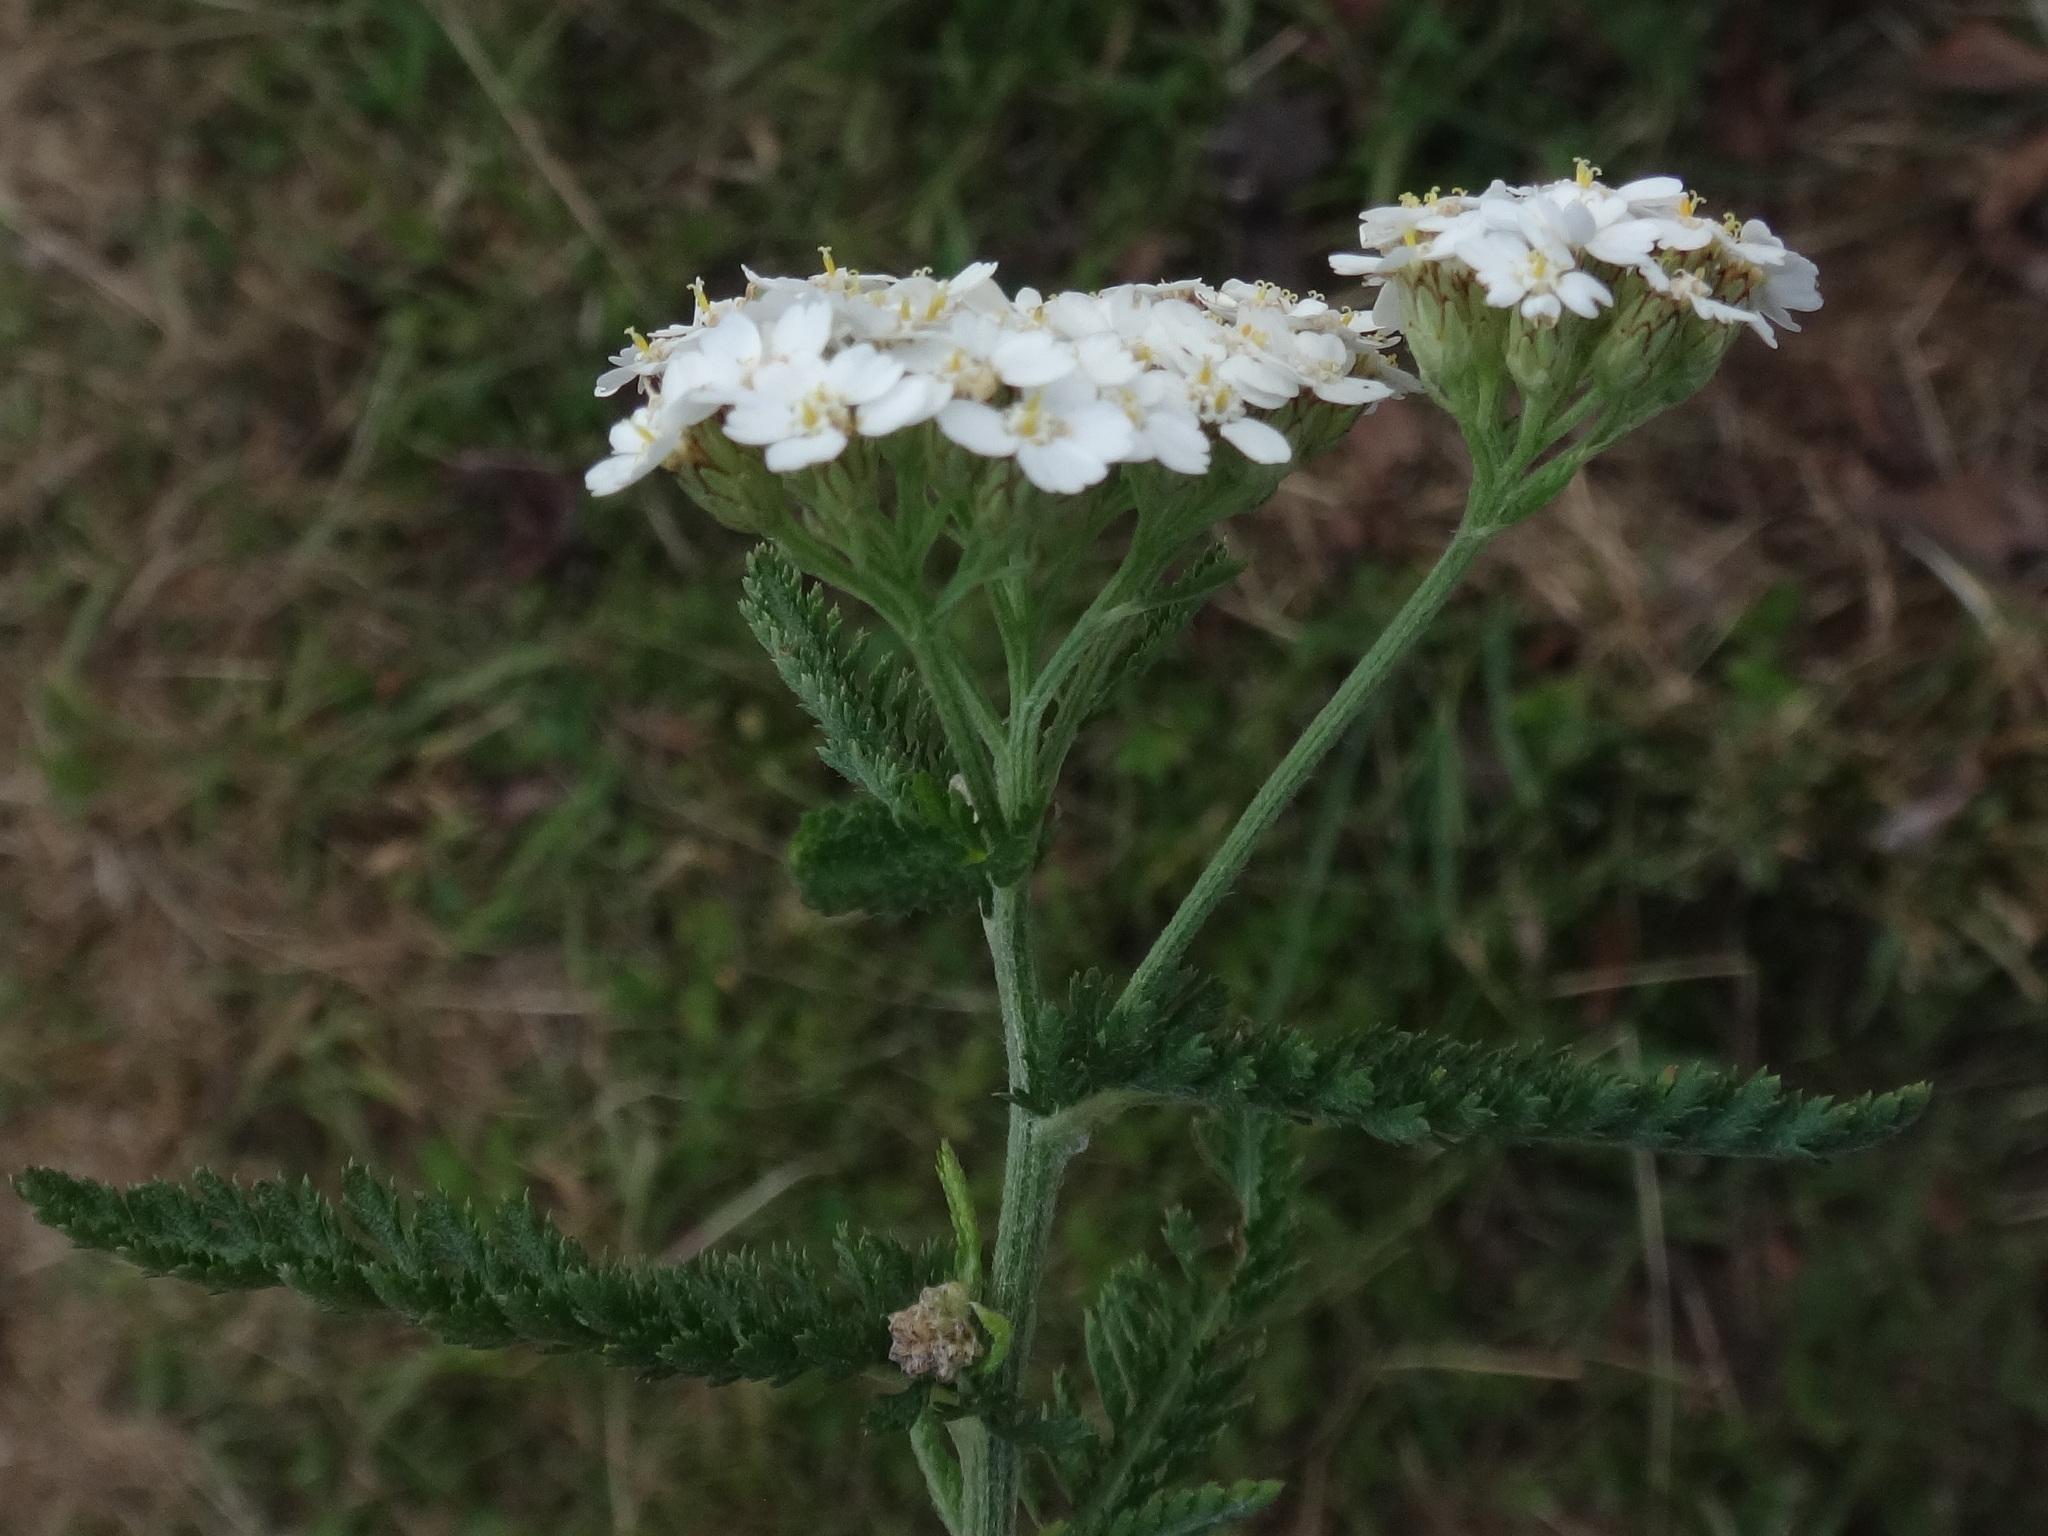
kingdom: Plantae
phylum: Tracheophyta
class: Magnoliopsida
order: Asterales
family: Asteraceae
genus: Achillea
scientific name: Achillea millefolium
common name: Yarrow
